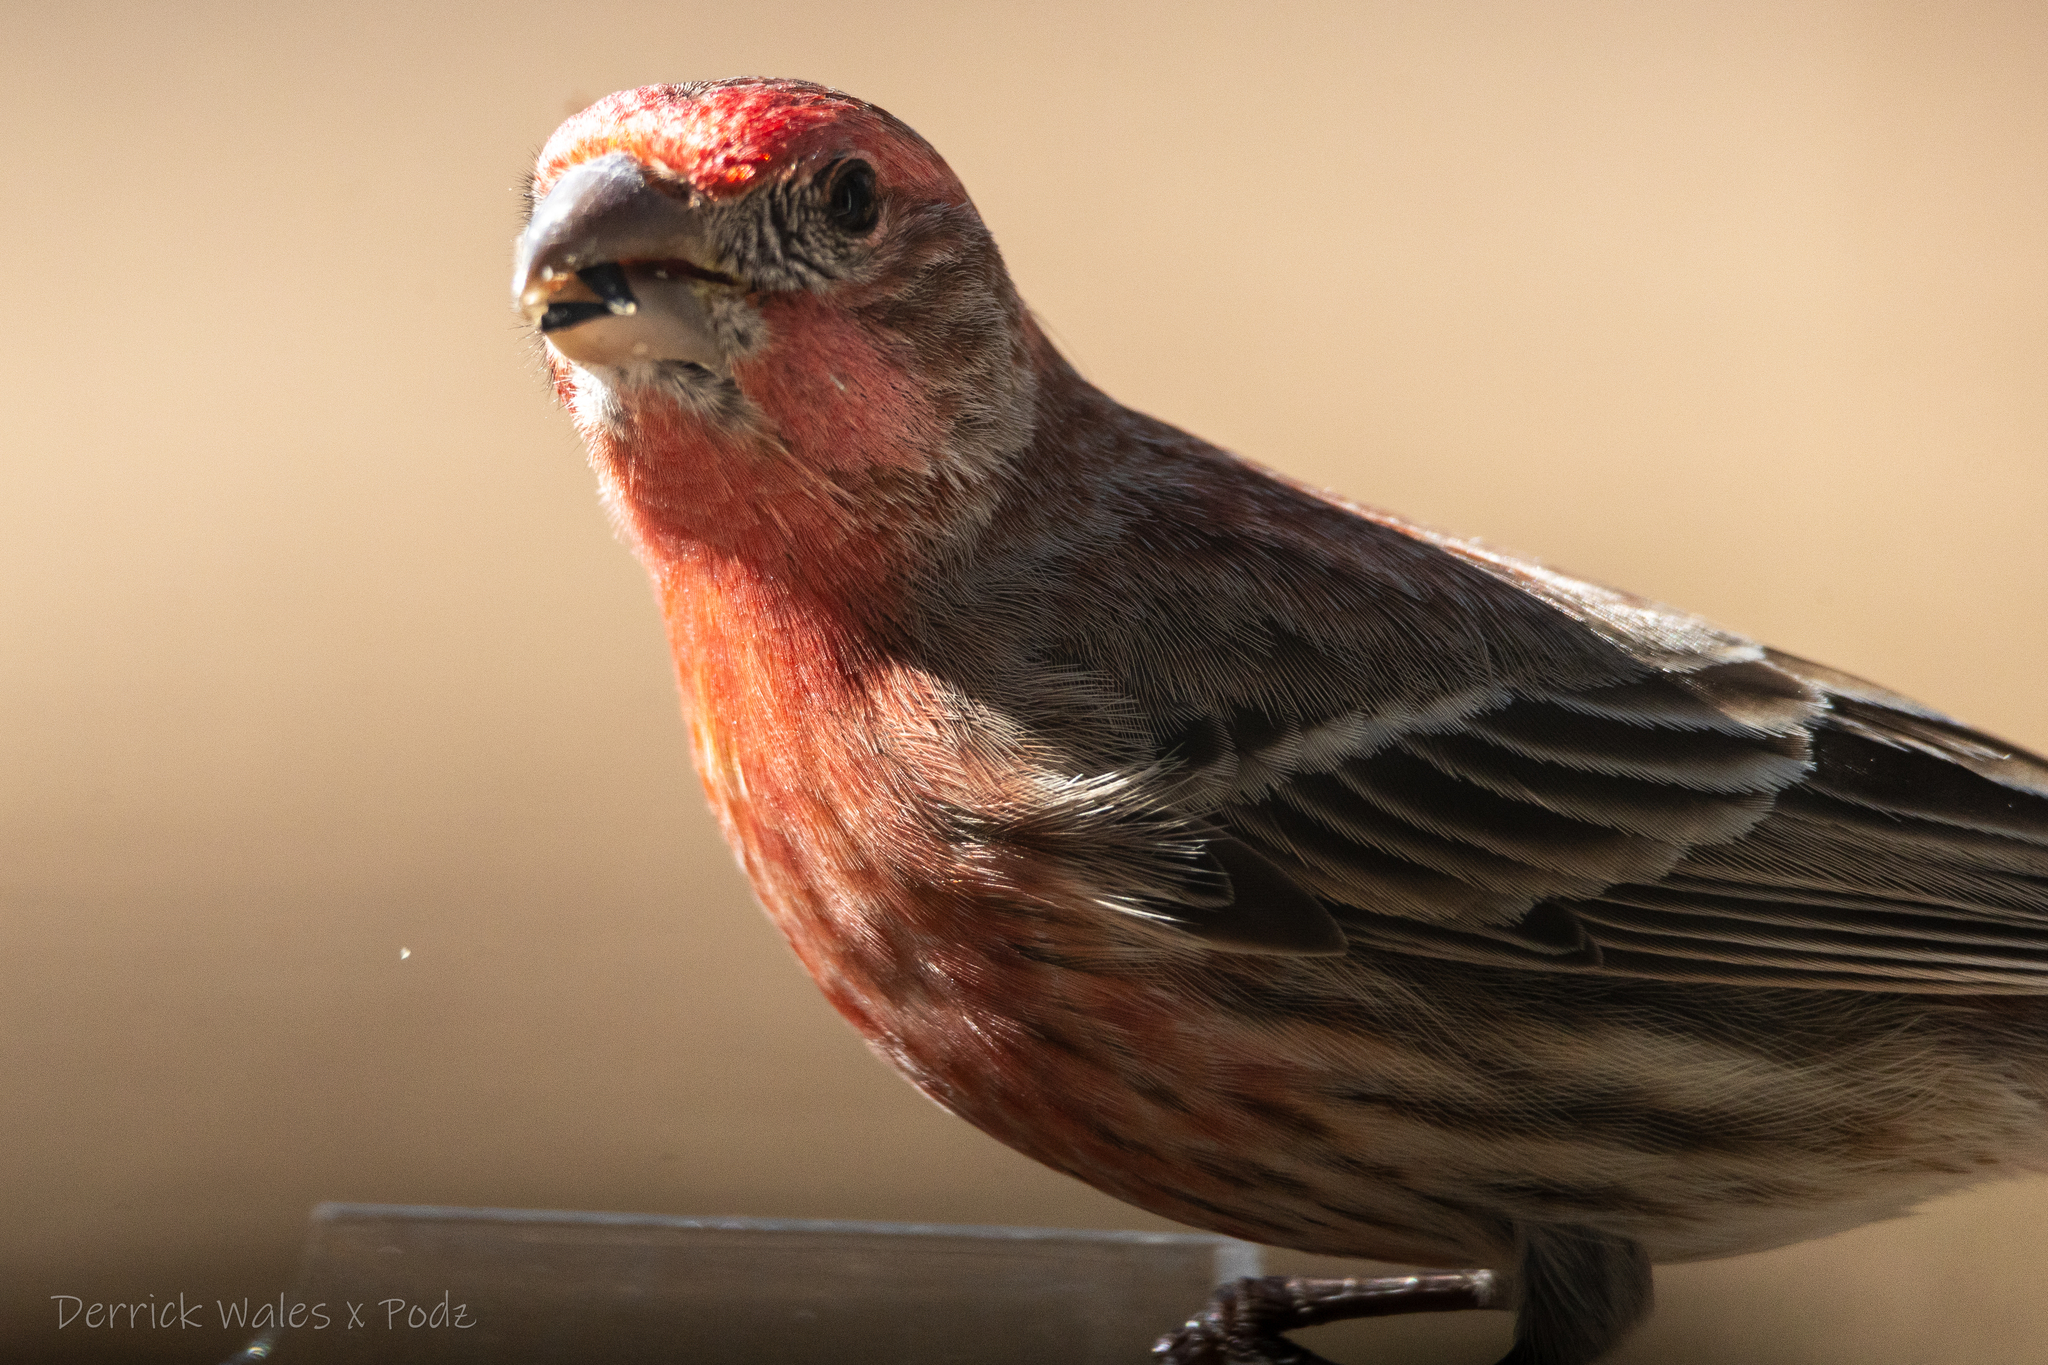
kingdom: Animalia
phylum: Chordata
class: Aves
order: Passeriformes
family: Fringillidae
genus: Haemorhous
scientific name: Haemorhous mexicanus
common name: House finch
